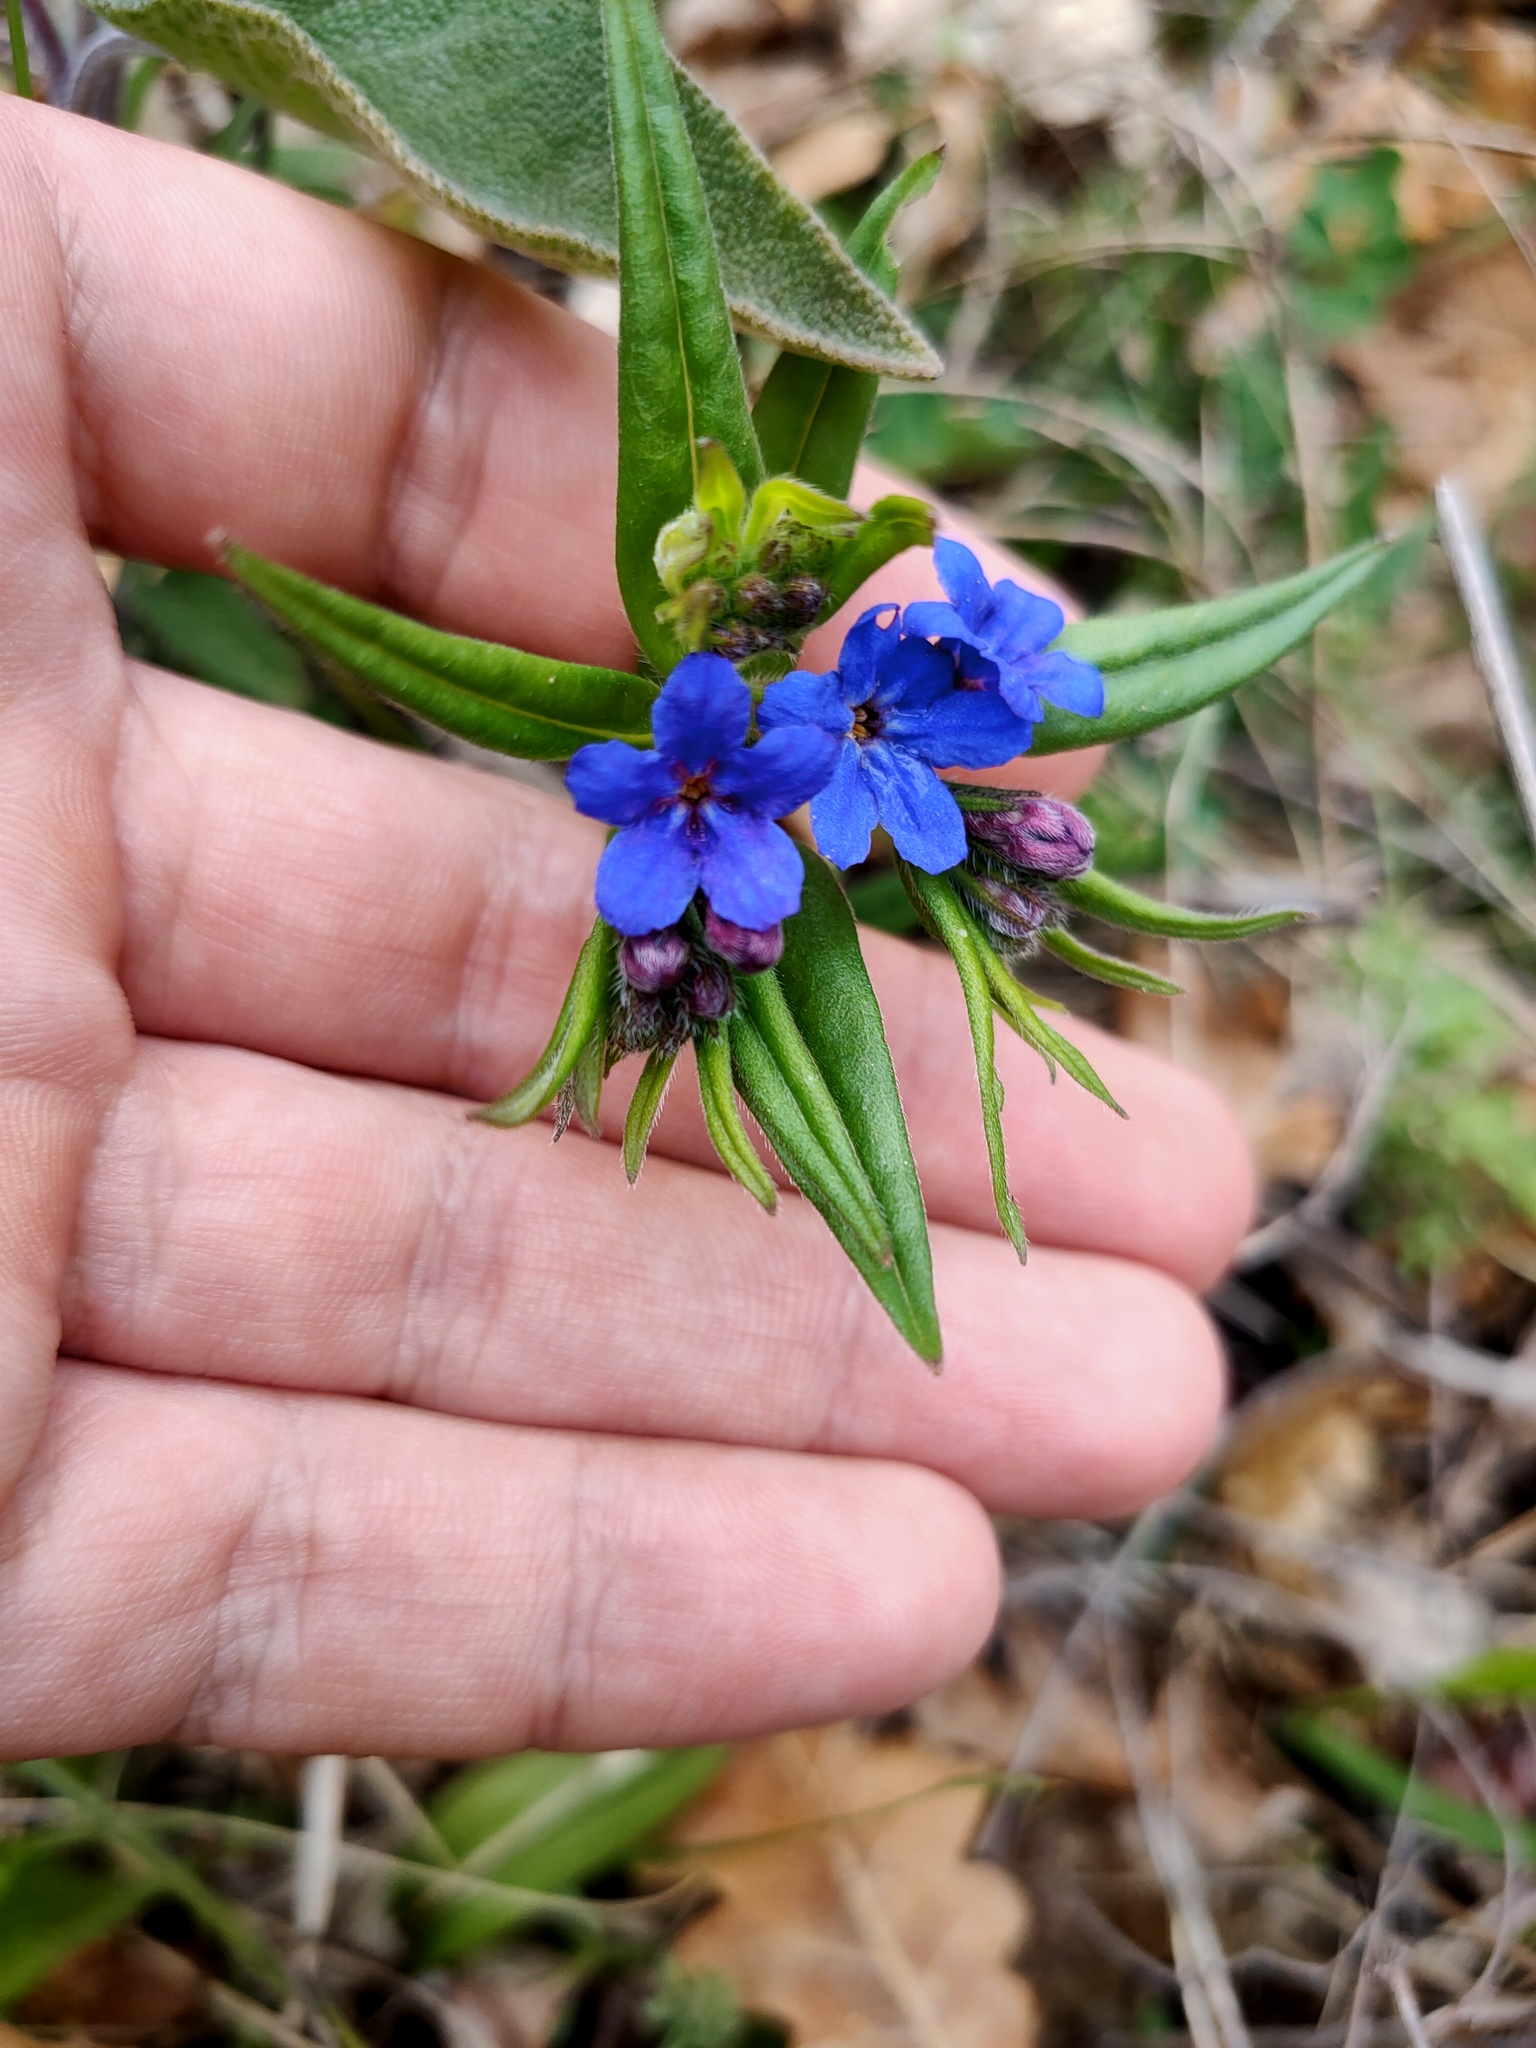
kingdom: Plantae
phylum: Tracheophyta
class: Magnoliopsida
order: Boraginales
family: Boraginaceae
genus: Aegonychon
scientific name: Aegonychon purpurocaeruleum
